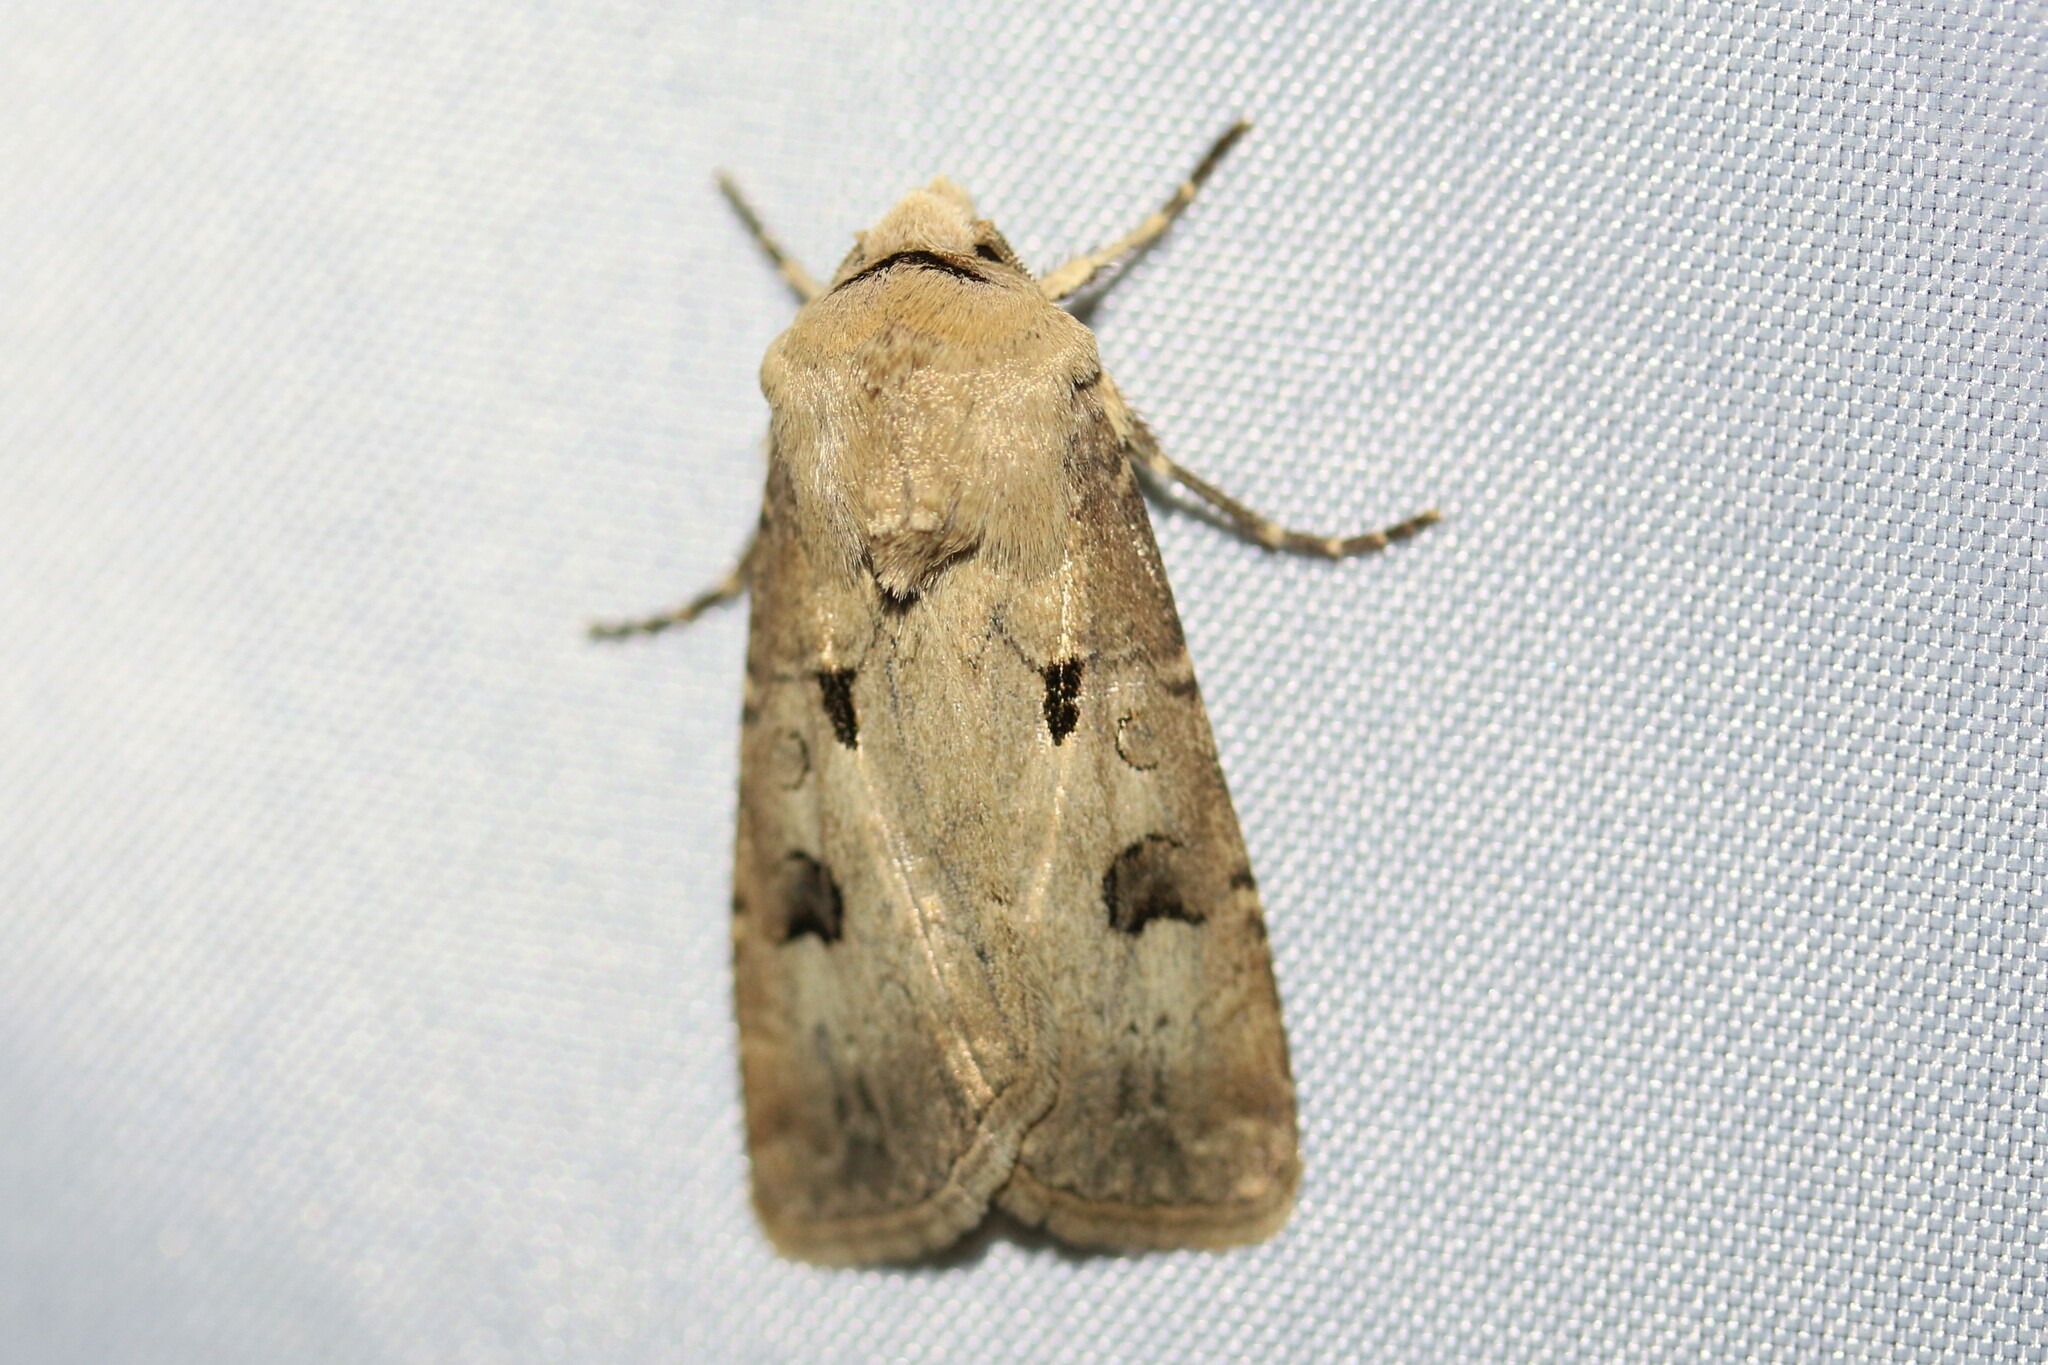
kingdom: Animalia
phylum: Arthropoda
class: Insecta
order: Lepidoptera
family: Noctuidae
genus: Agrotis
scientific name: Agrotis exclamationis
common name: Heart and dart
